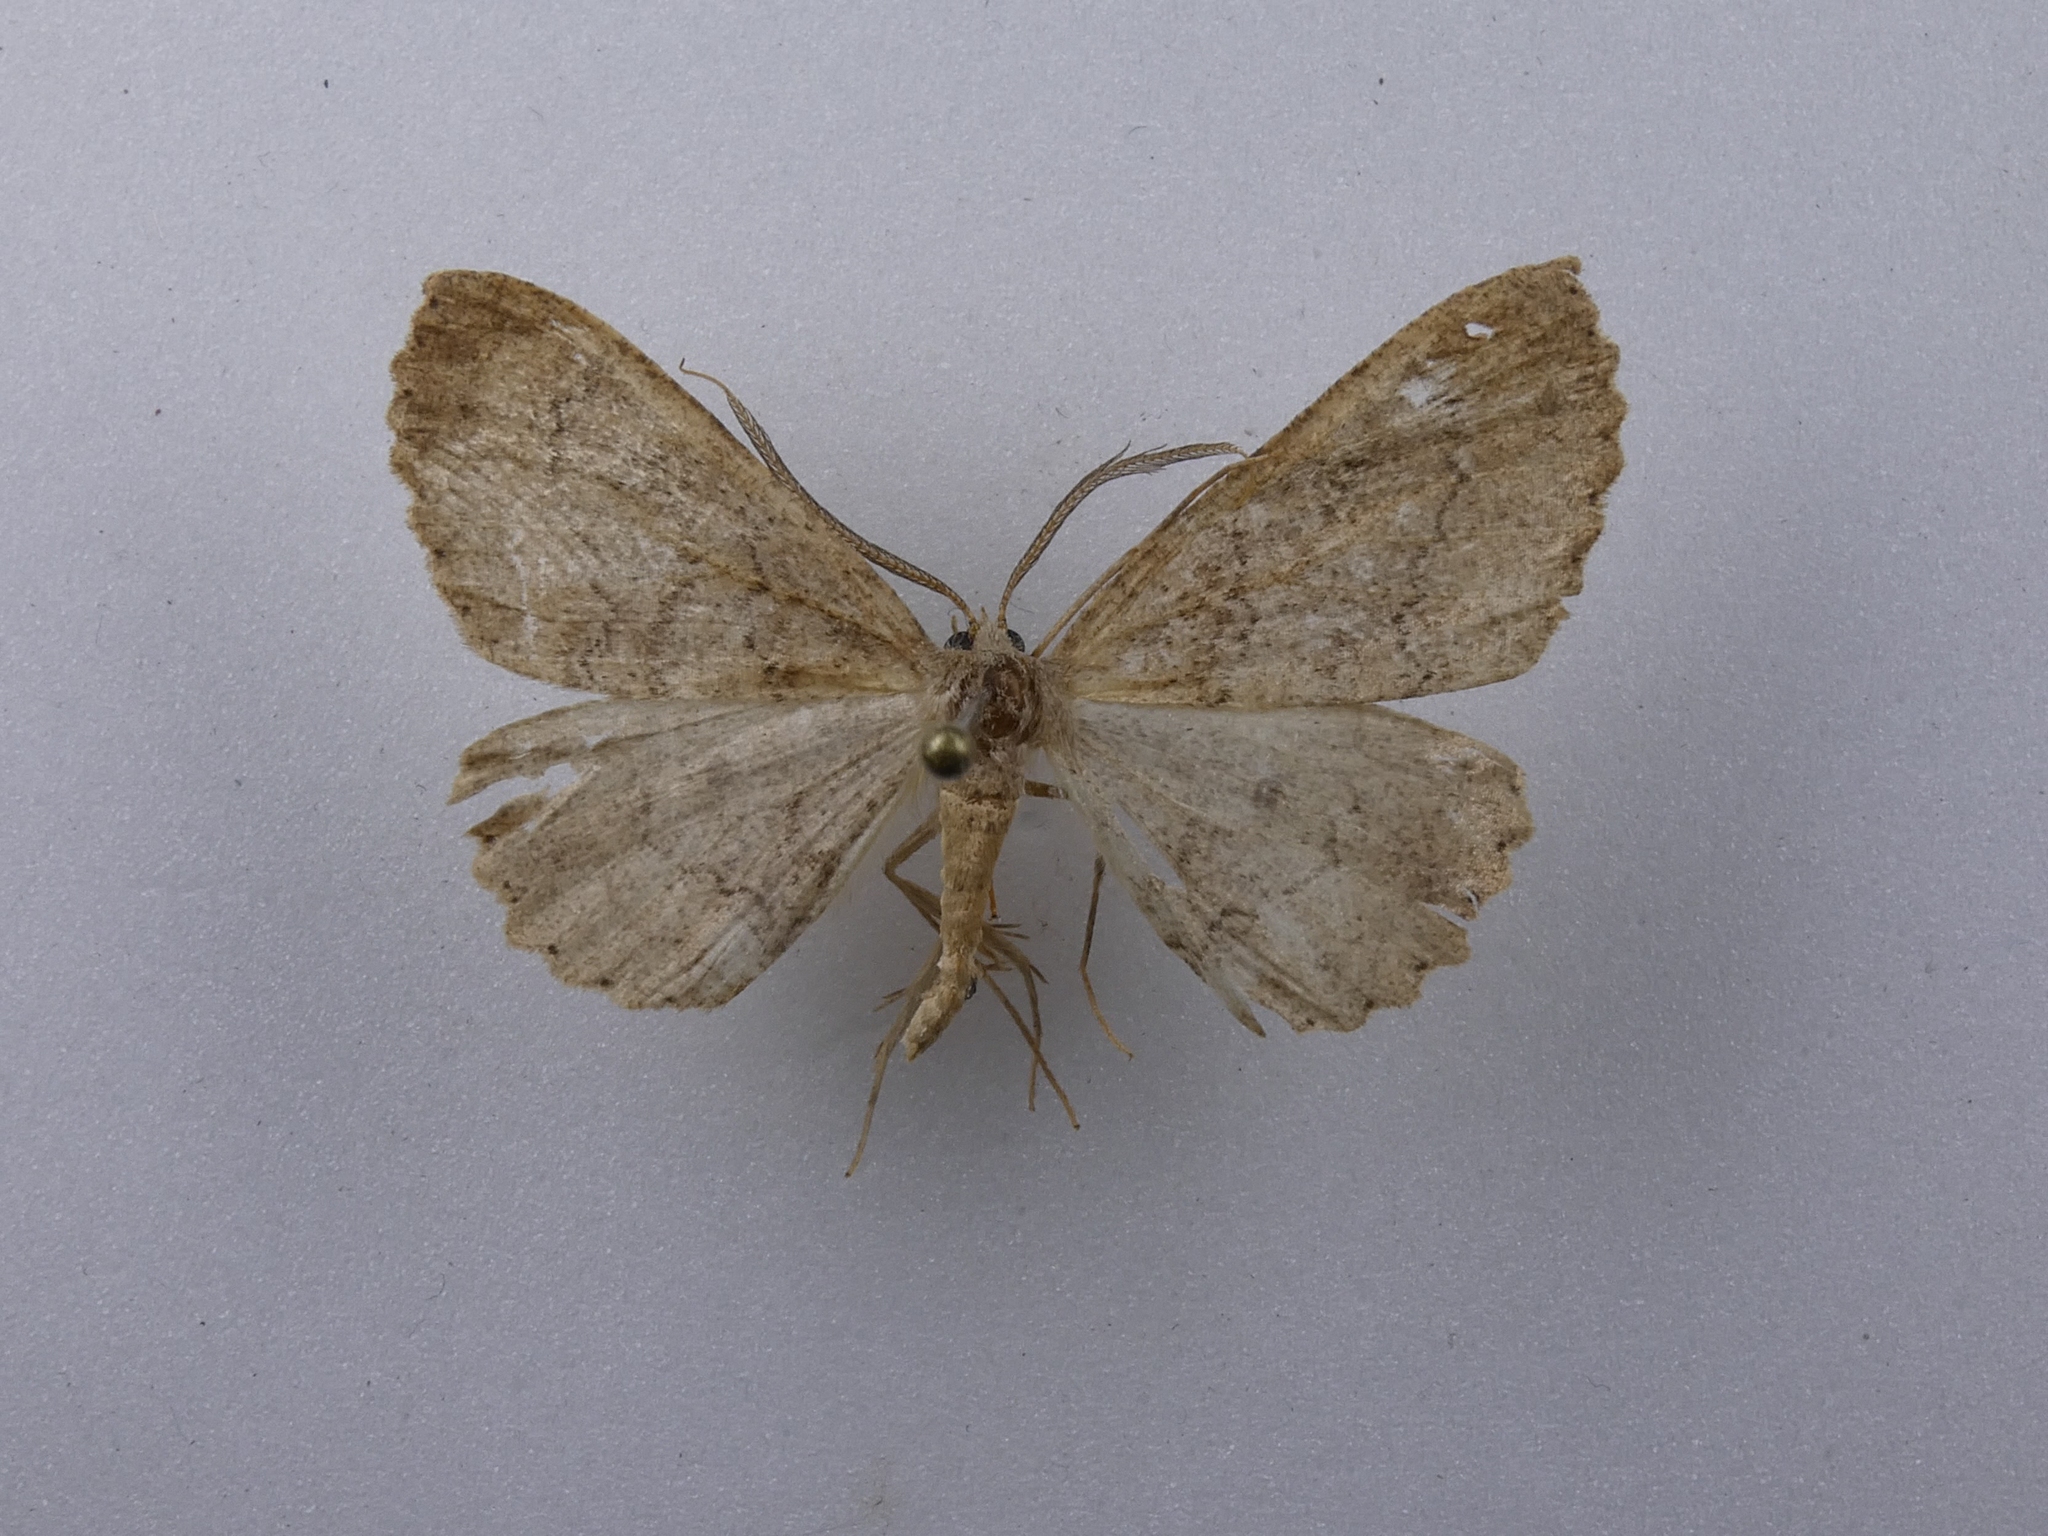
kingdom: Animalia
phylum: Arthropoda
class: Insecta
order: Lepidoptera
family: Geometridae
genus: Cleora
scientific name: Cleora scriptaria
